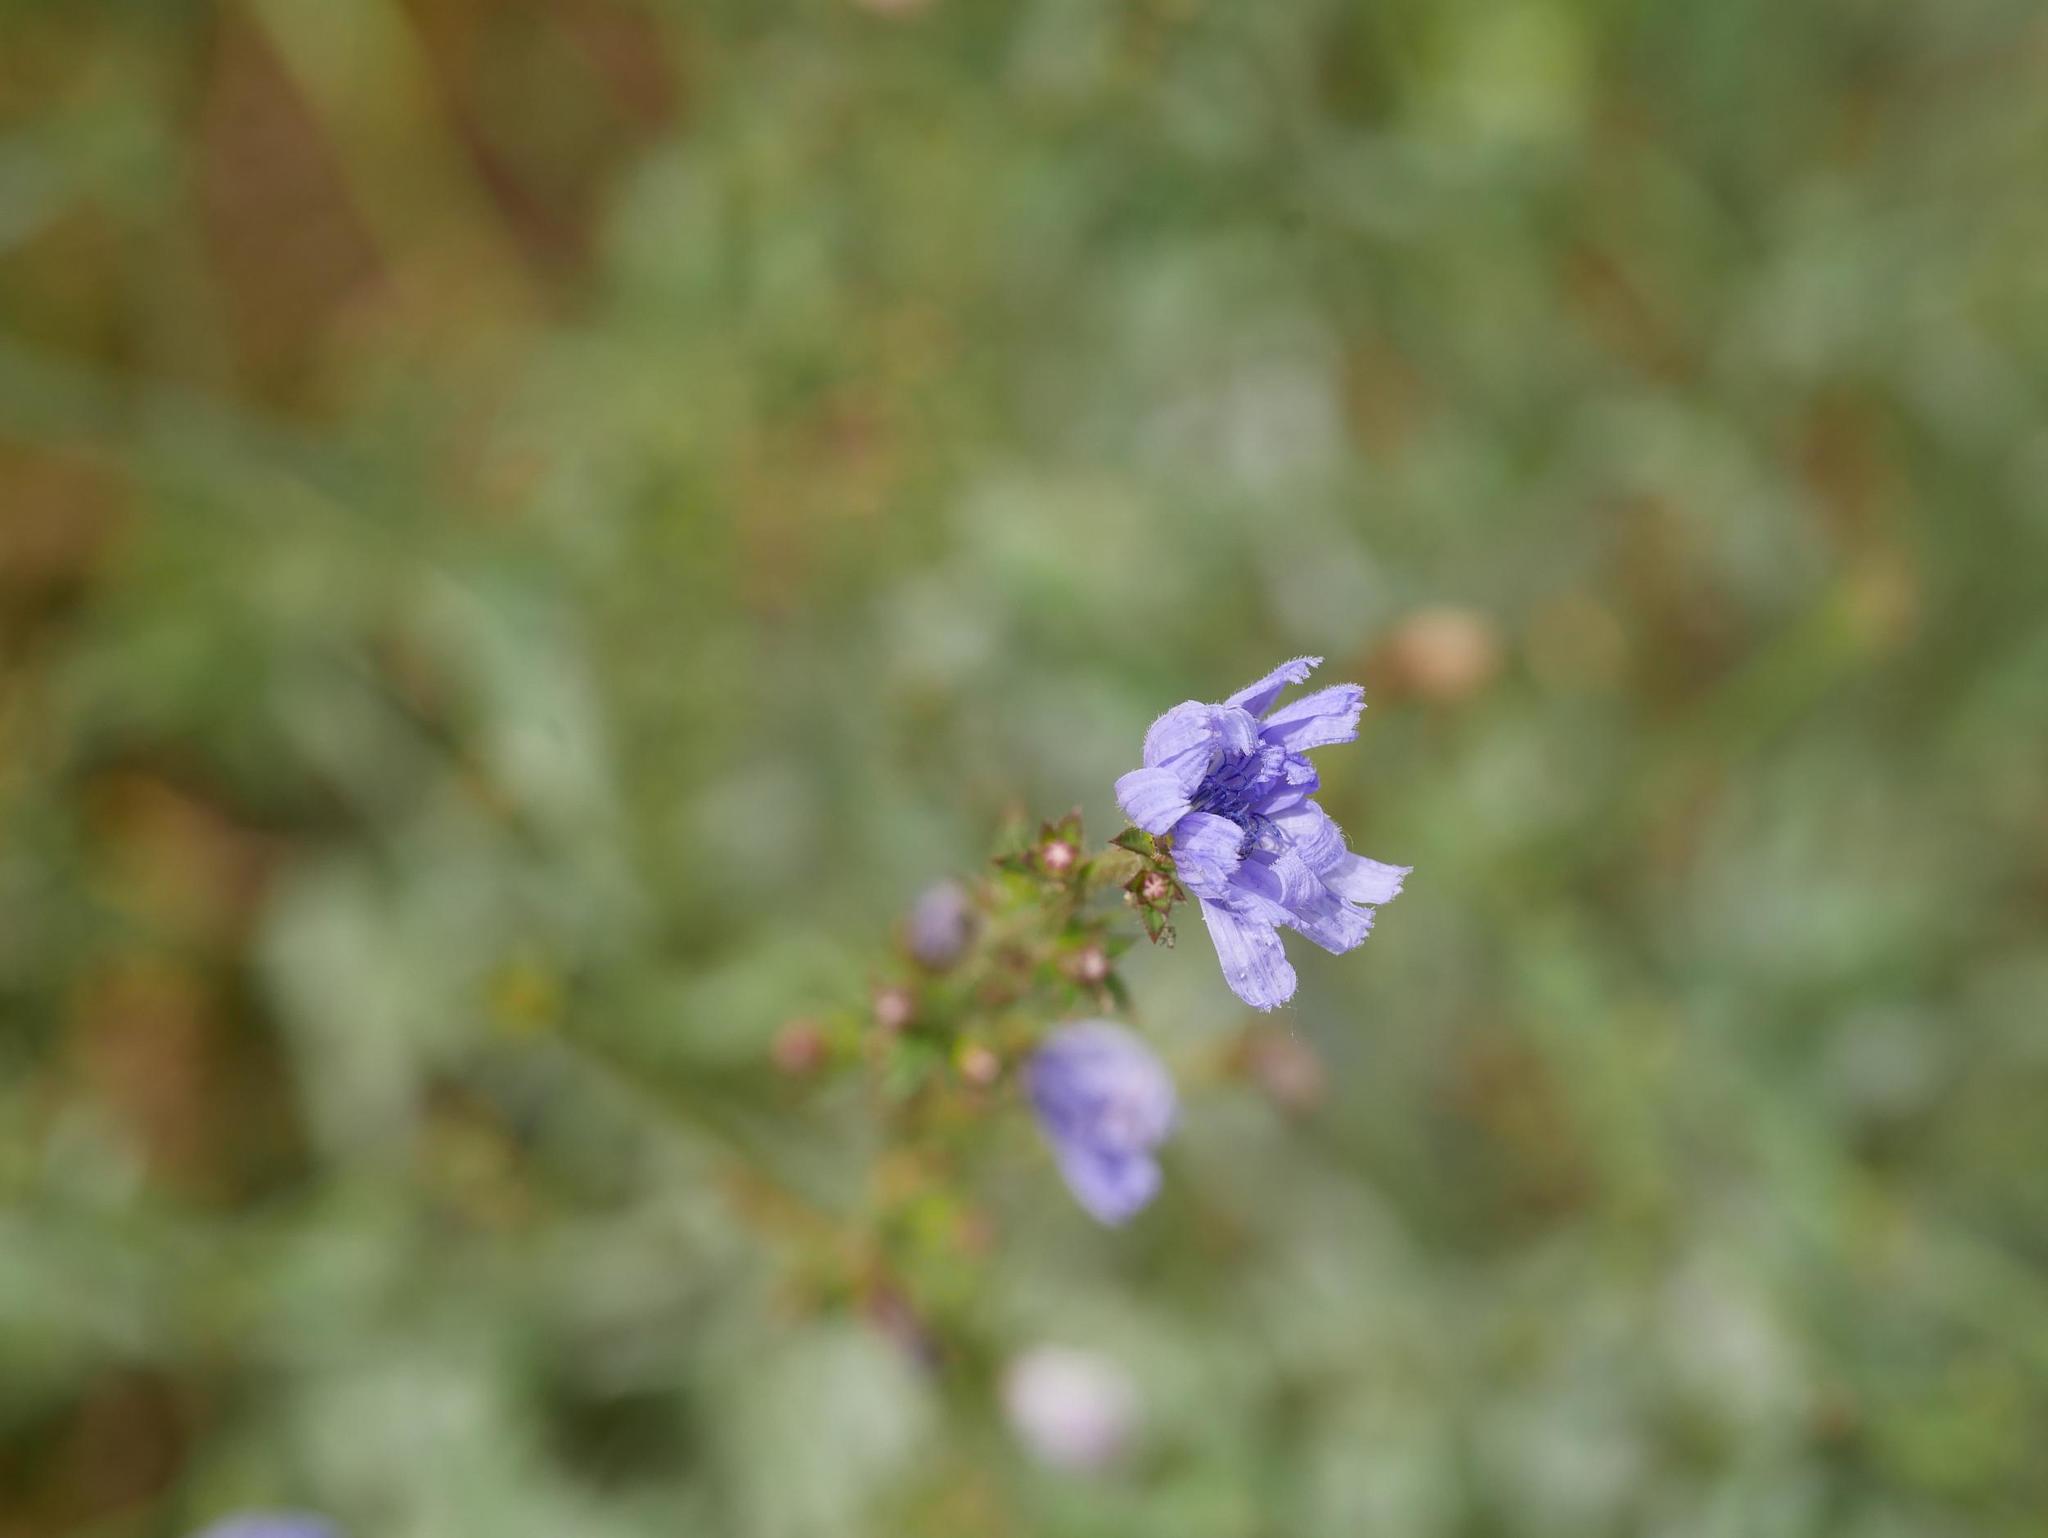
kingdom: Plantae
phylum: Tracheophyta
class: Magnoliopsida
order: Asterales
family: Asteraceae
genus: Cichorium
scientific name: Cichorium intybus
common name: Chicory
